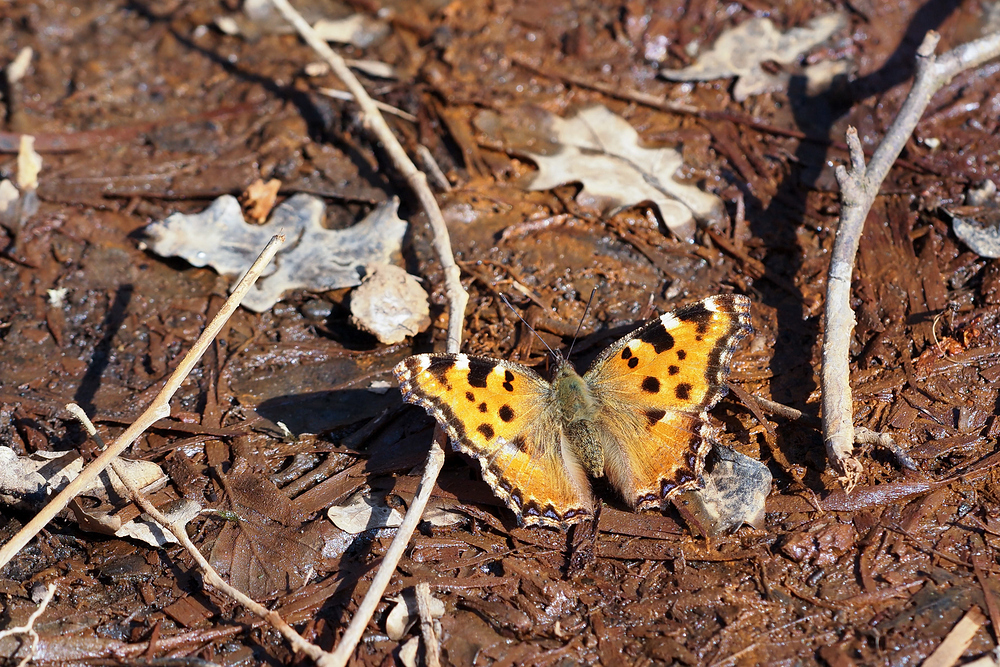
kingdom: Animalia
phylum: Arthropoda
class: Insecta
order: Lepidoptera
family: Nymphalidae
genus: Nymphalis
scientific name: Nymphalis polychloros
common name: Large tortoiseshell
